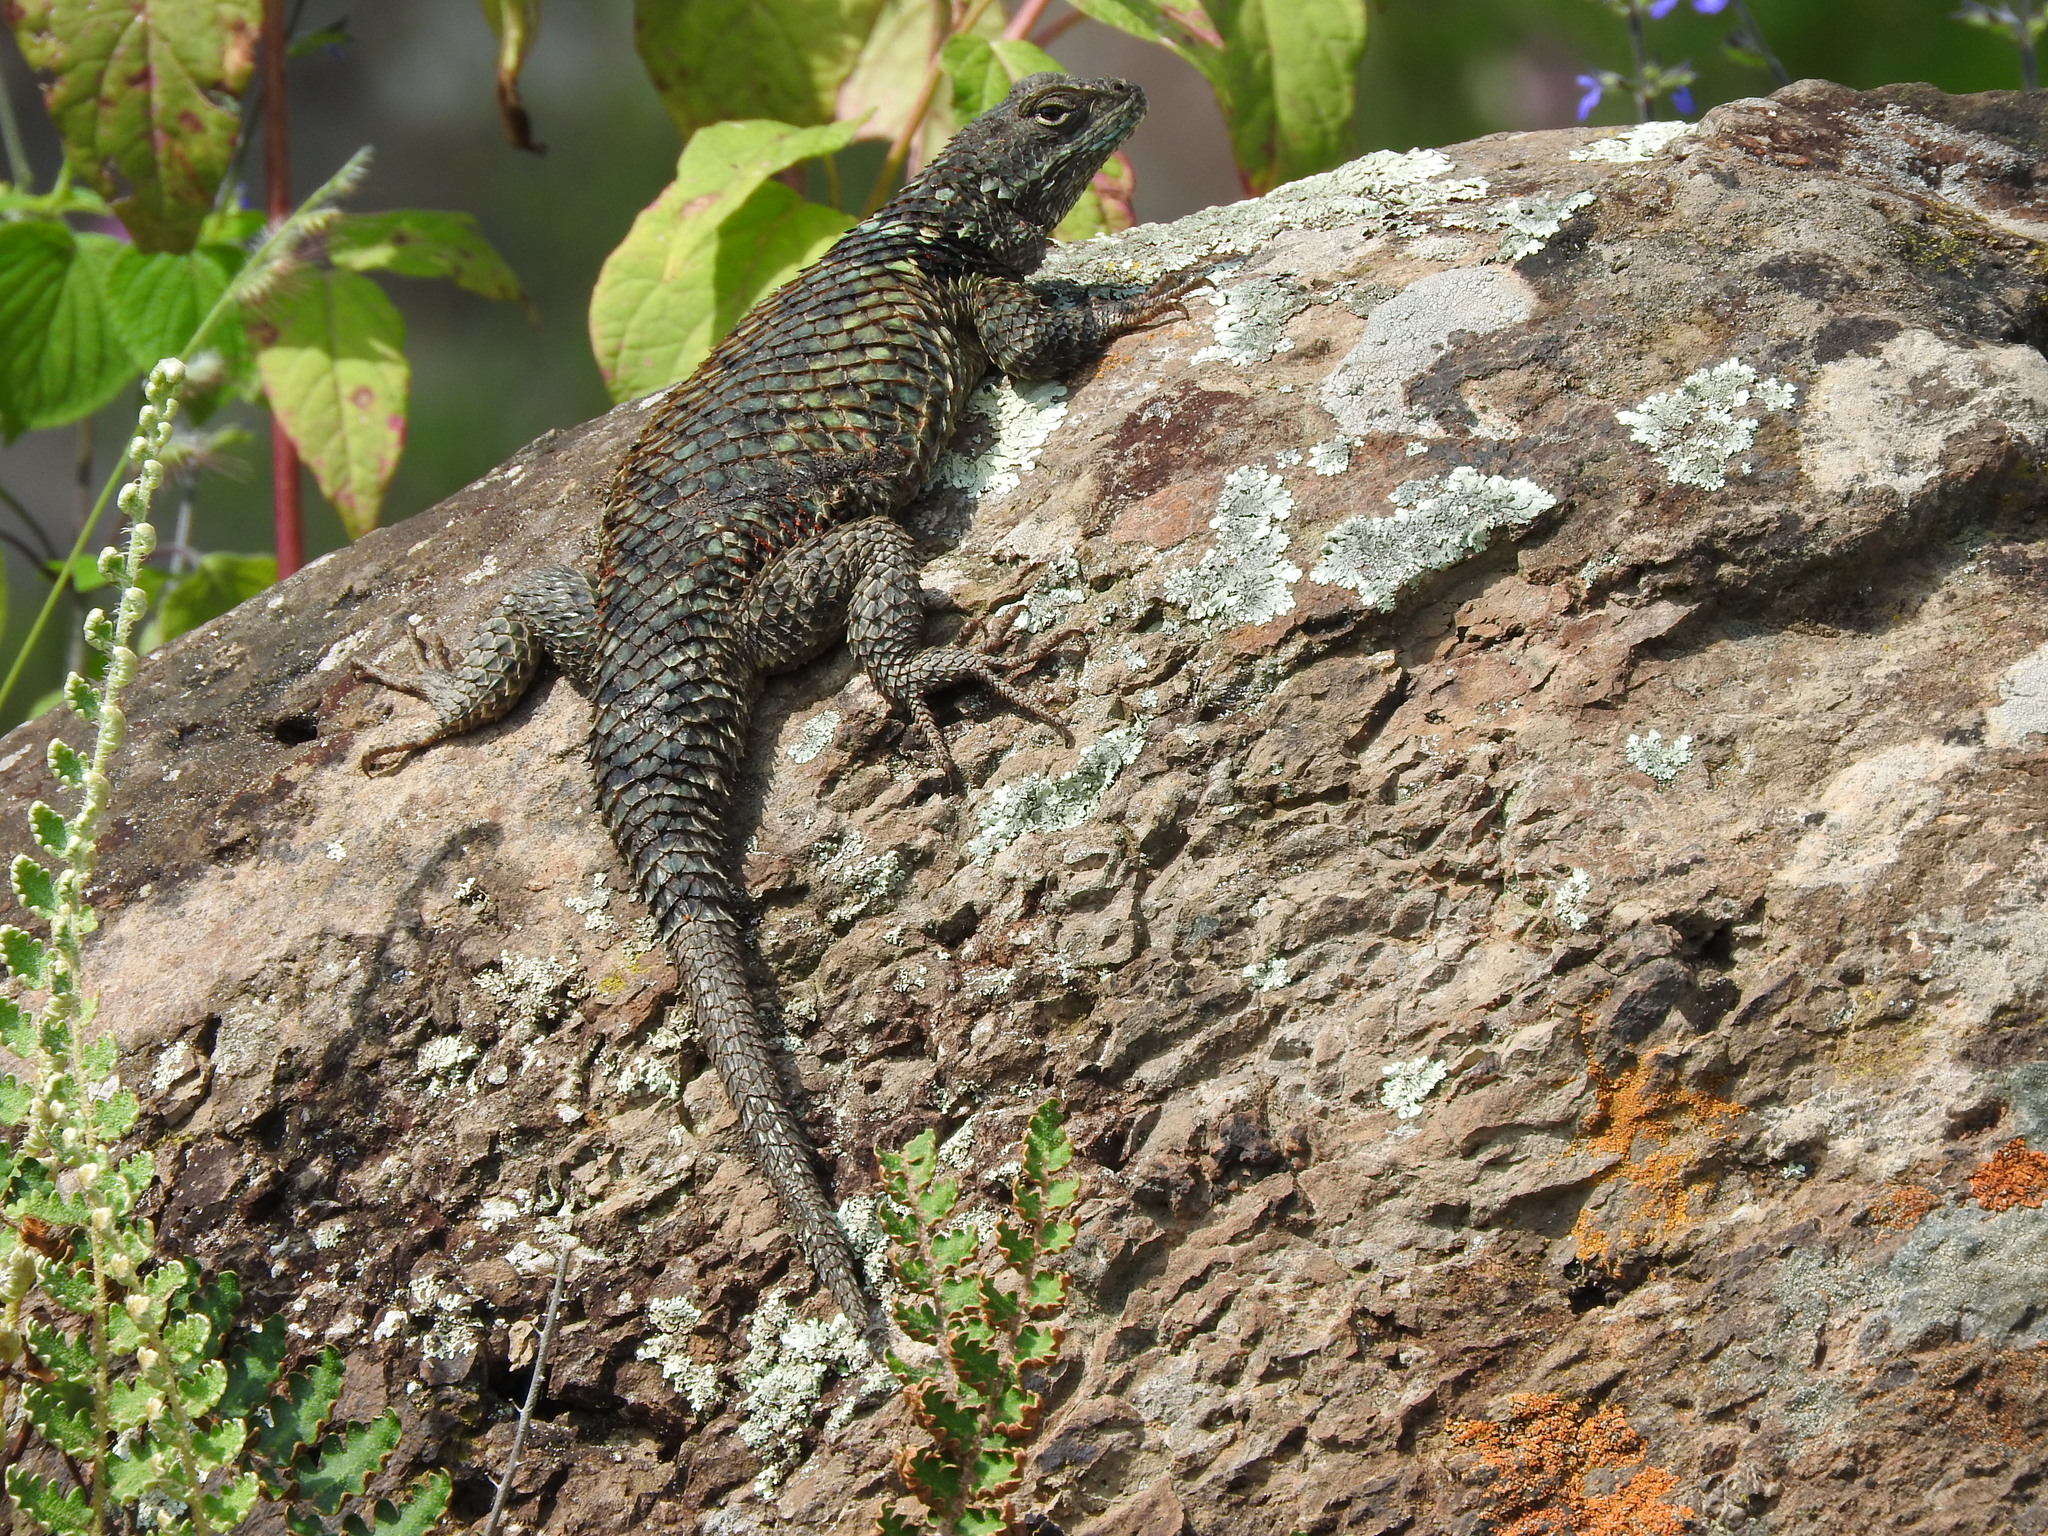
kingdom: Animalia
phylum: Chordata
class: Squamata
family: Phrynosomatidae
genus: Sceloporus
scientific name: Sceloporus torquatus
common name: Central plateau torquate lizard [melanogaster]
